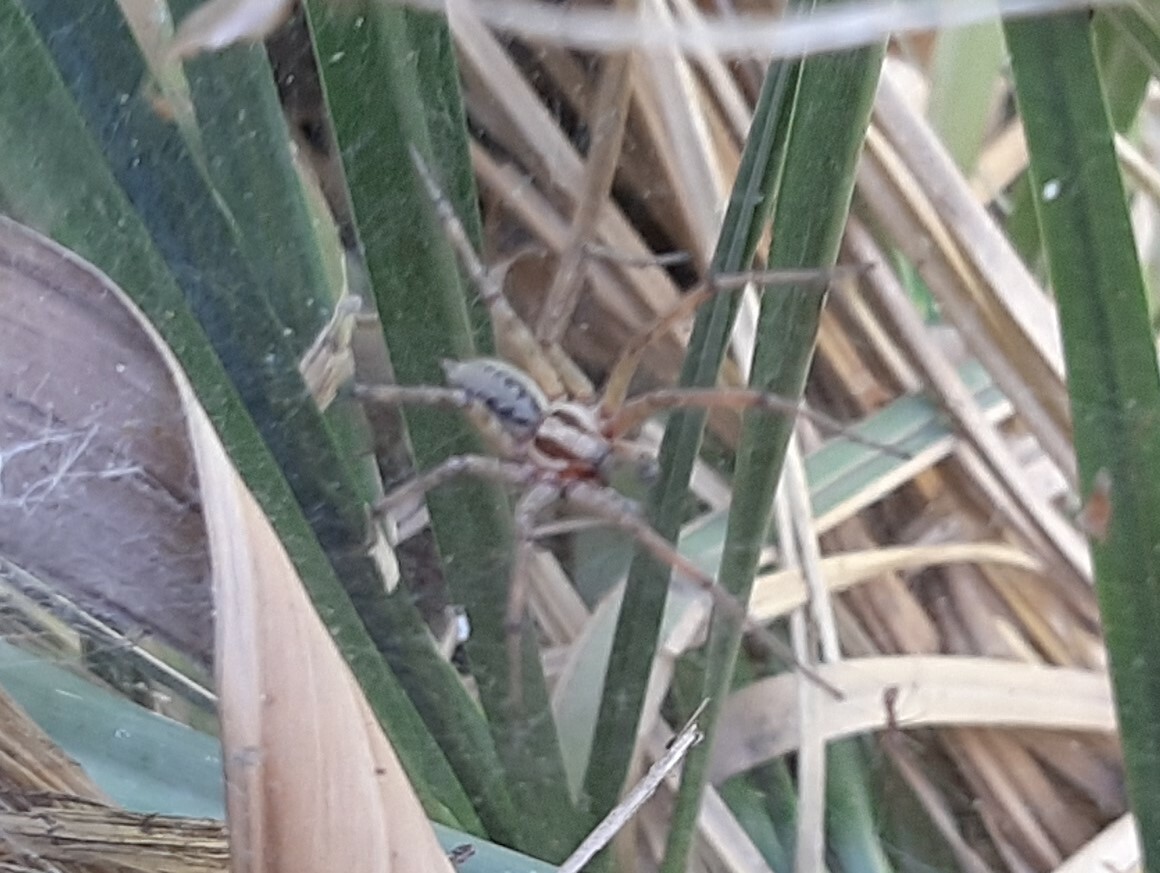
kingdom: Animalia
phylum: Arthropoda
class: Arachnida
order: Araneae
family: Agelenidae
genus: Agelena
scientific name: Agelena labyrinthica
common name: Labyrinth spider
